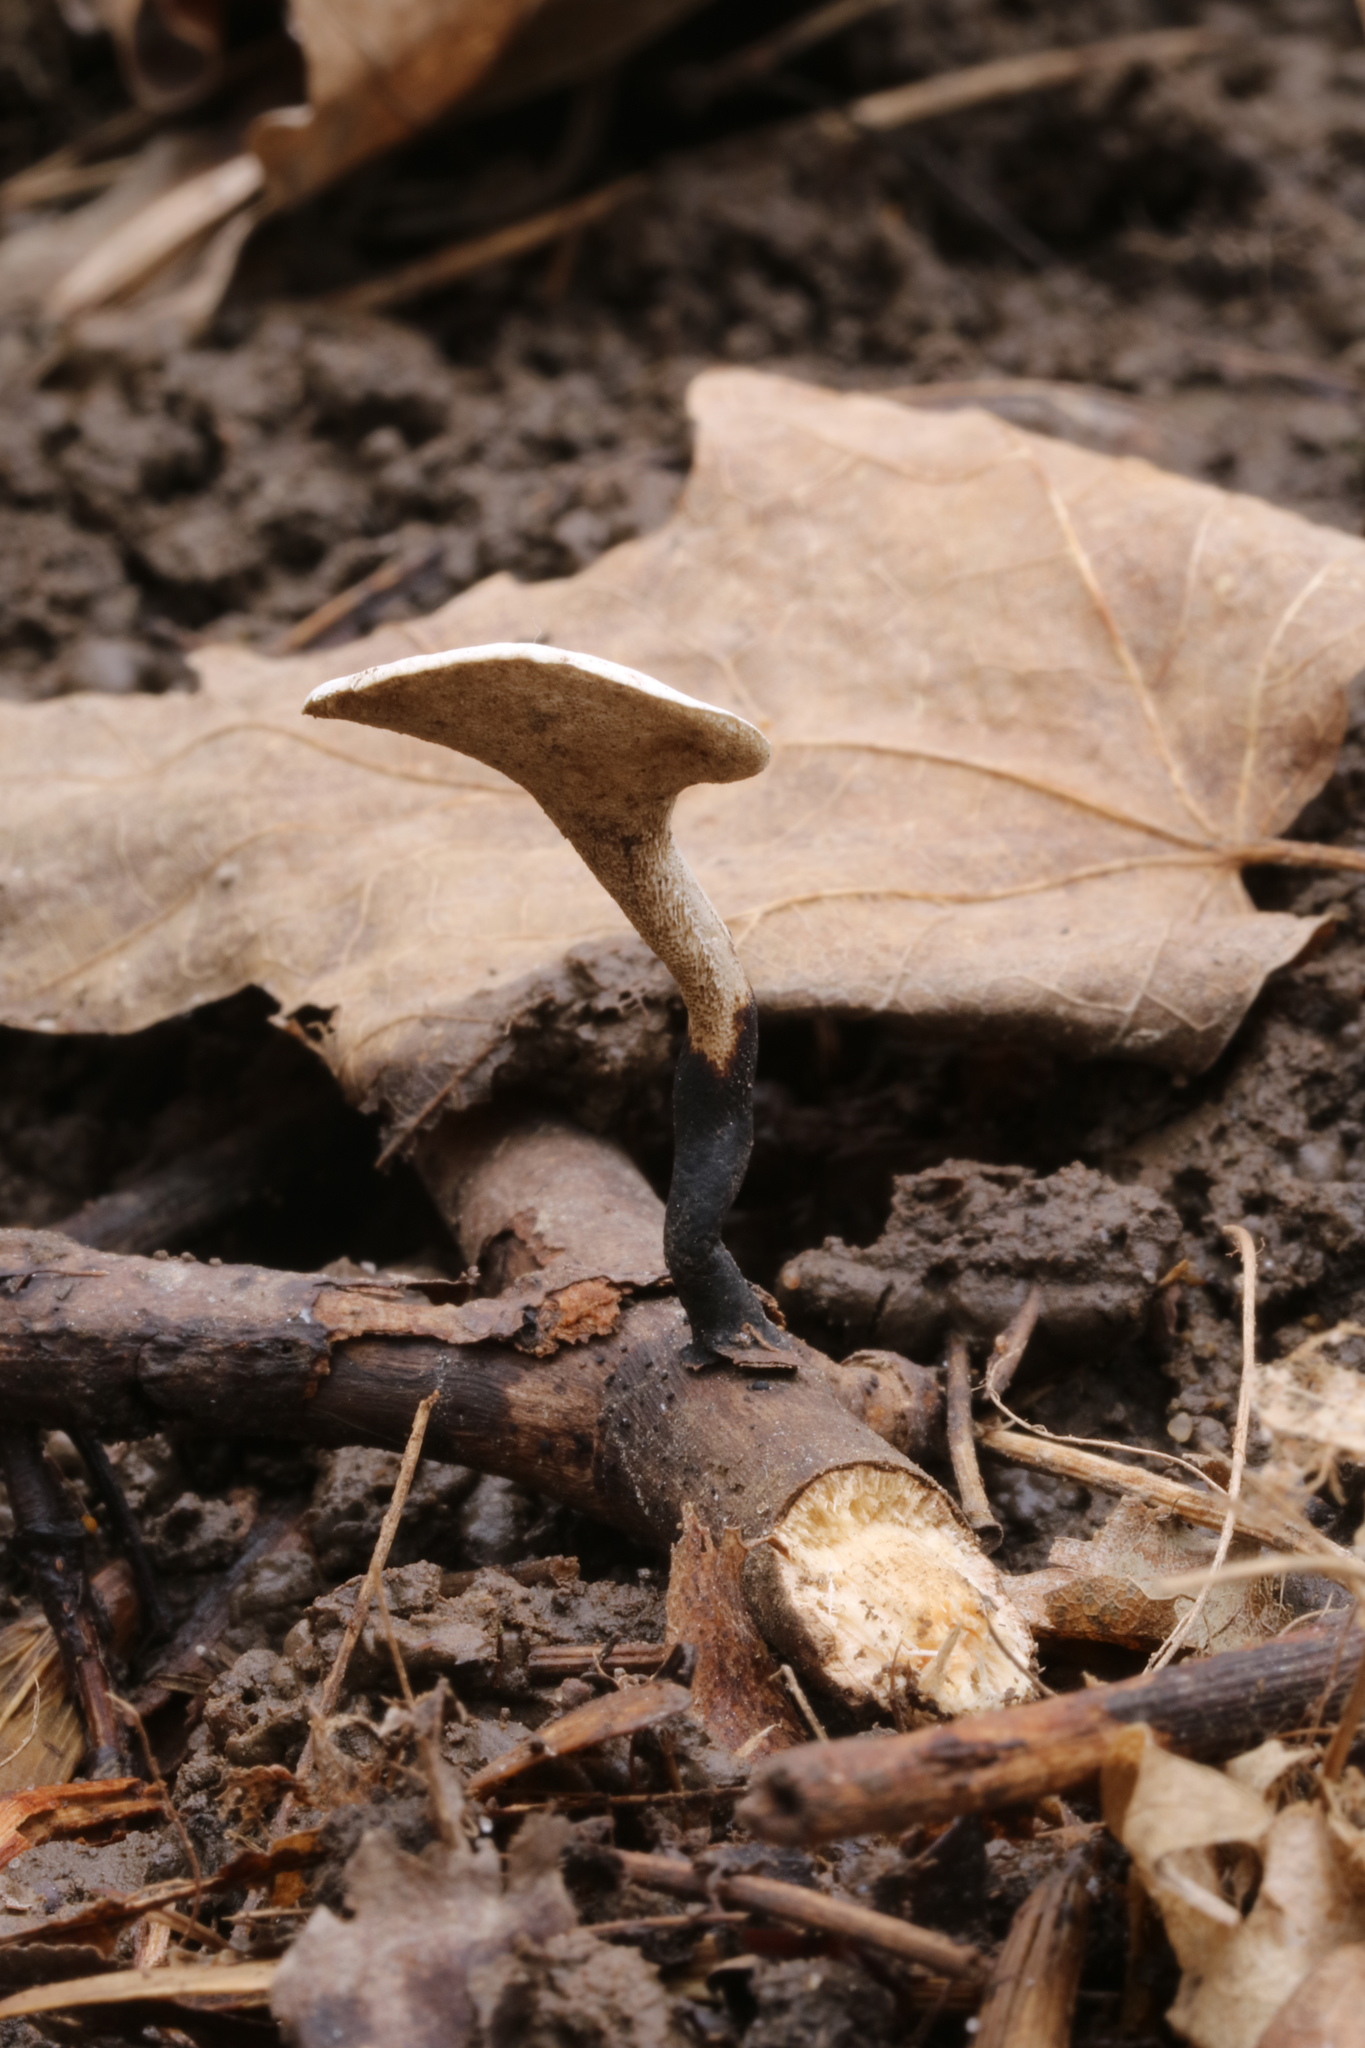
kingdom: Fungi
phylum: Basidiomycota
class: Agaricomycetes
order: Polyporales
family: Polyporaceae
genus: Cerioporus
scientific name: Cerioporus varius
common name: Elegant polypore
